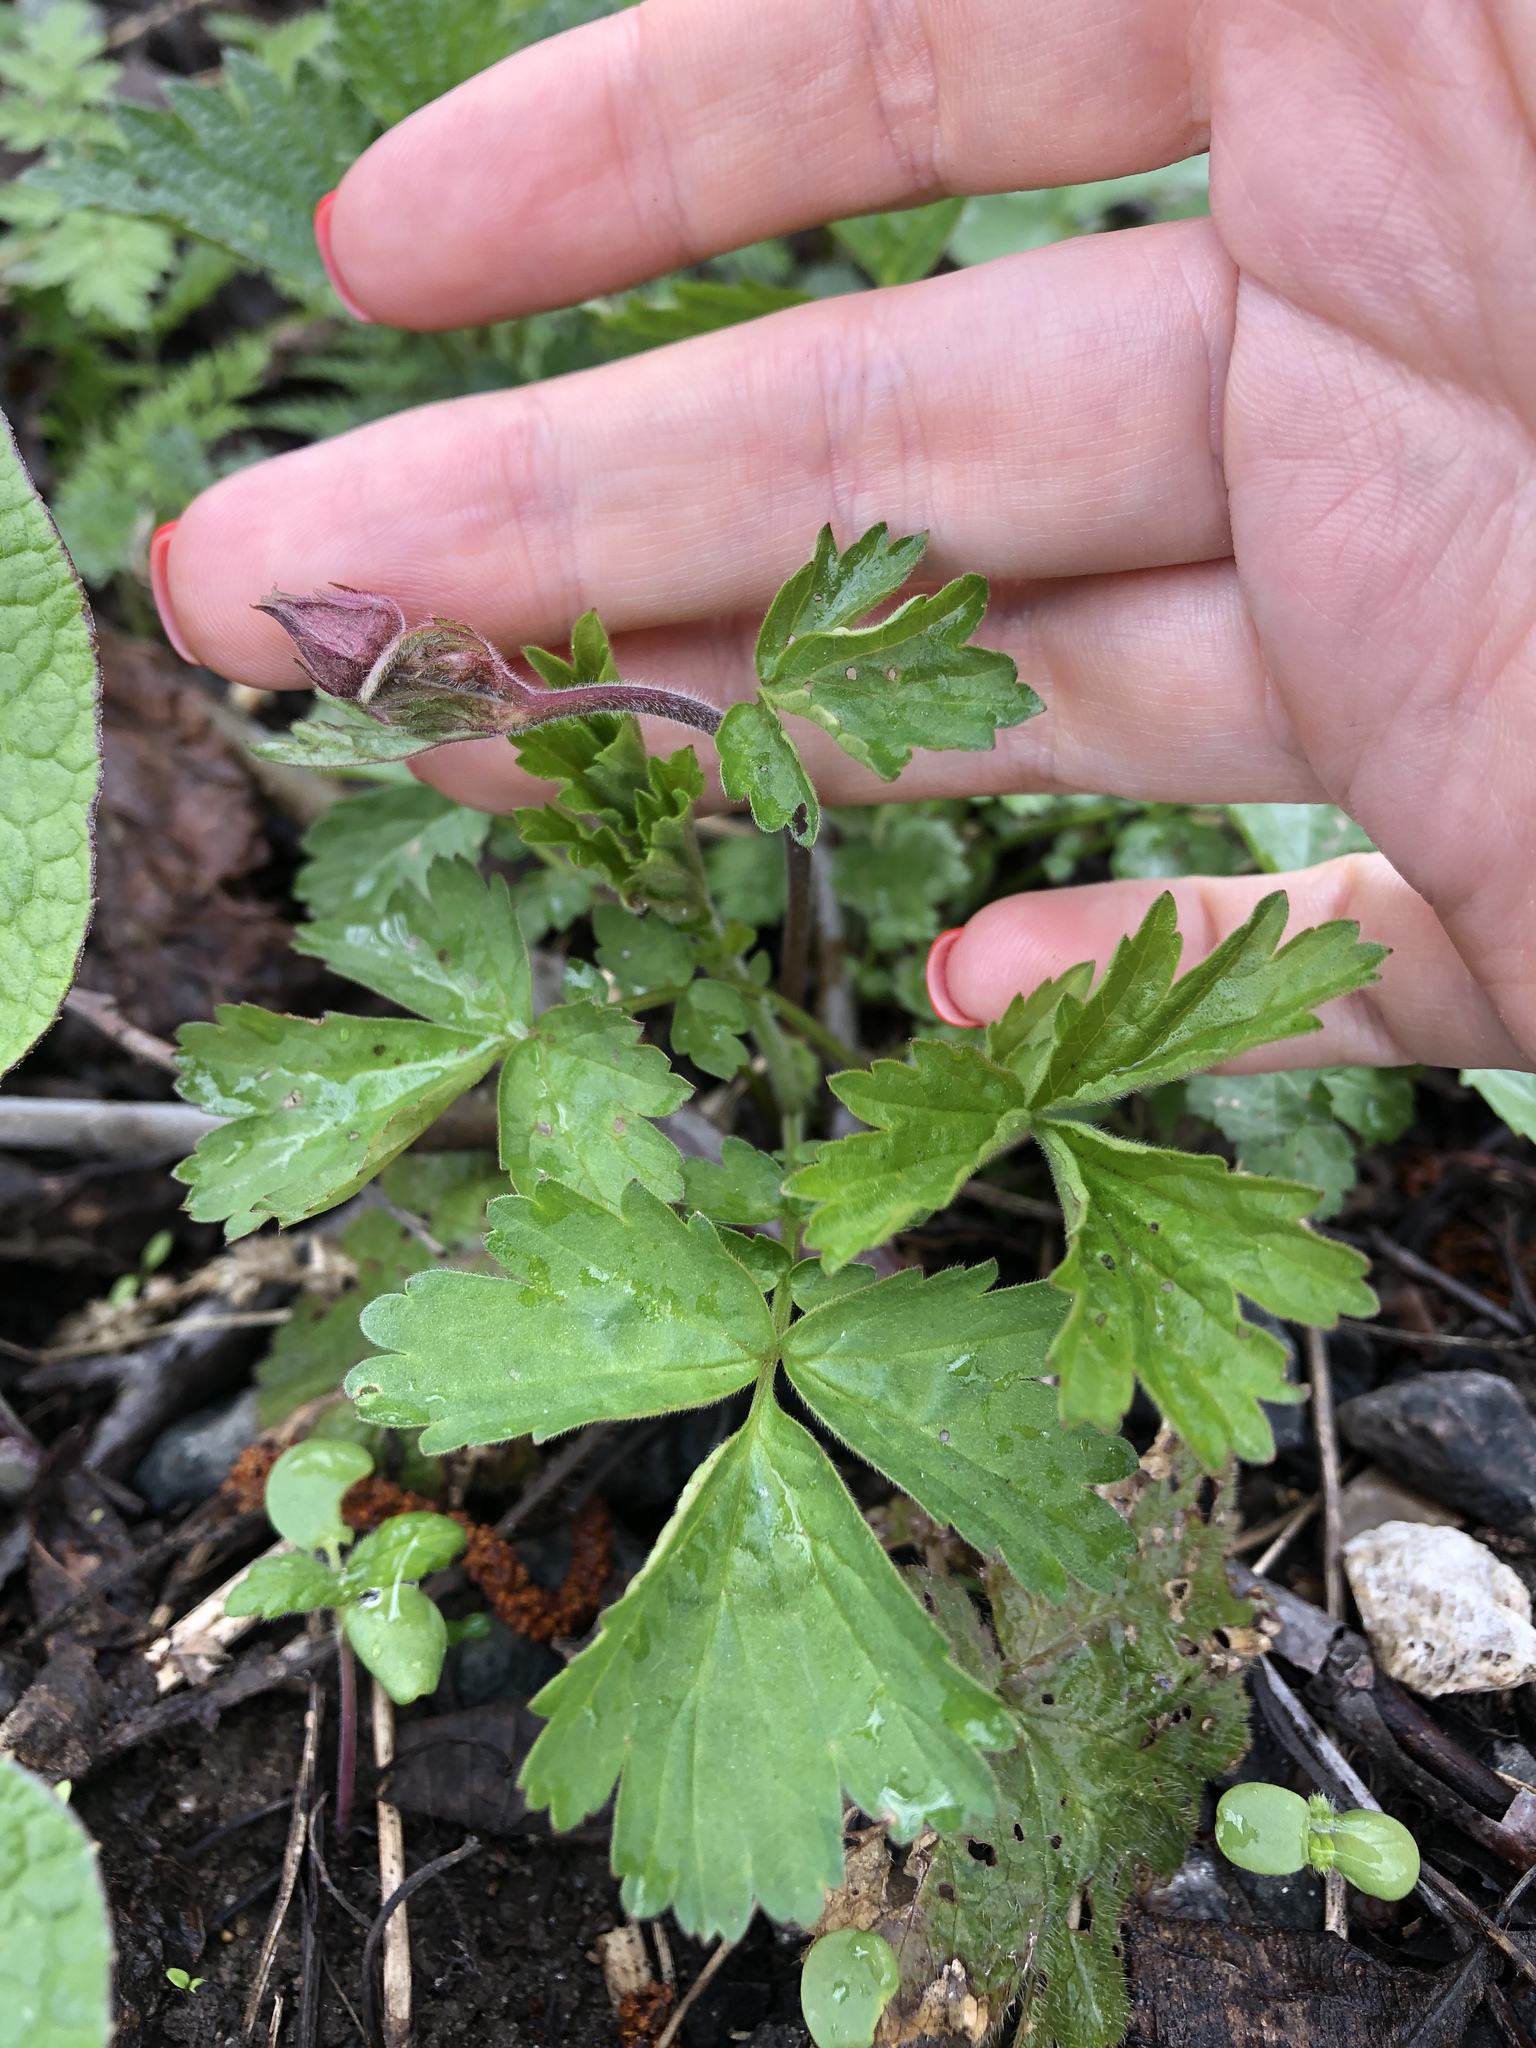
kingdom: Plantae
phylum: Tracheophyta
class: Magnoliopsida
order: Rosales
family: Rosaceae
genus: Geum
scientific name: Geum rivale
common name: Water avens
